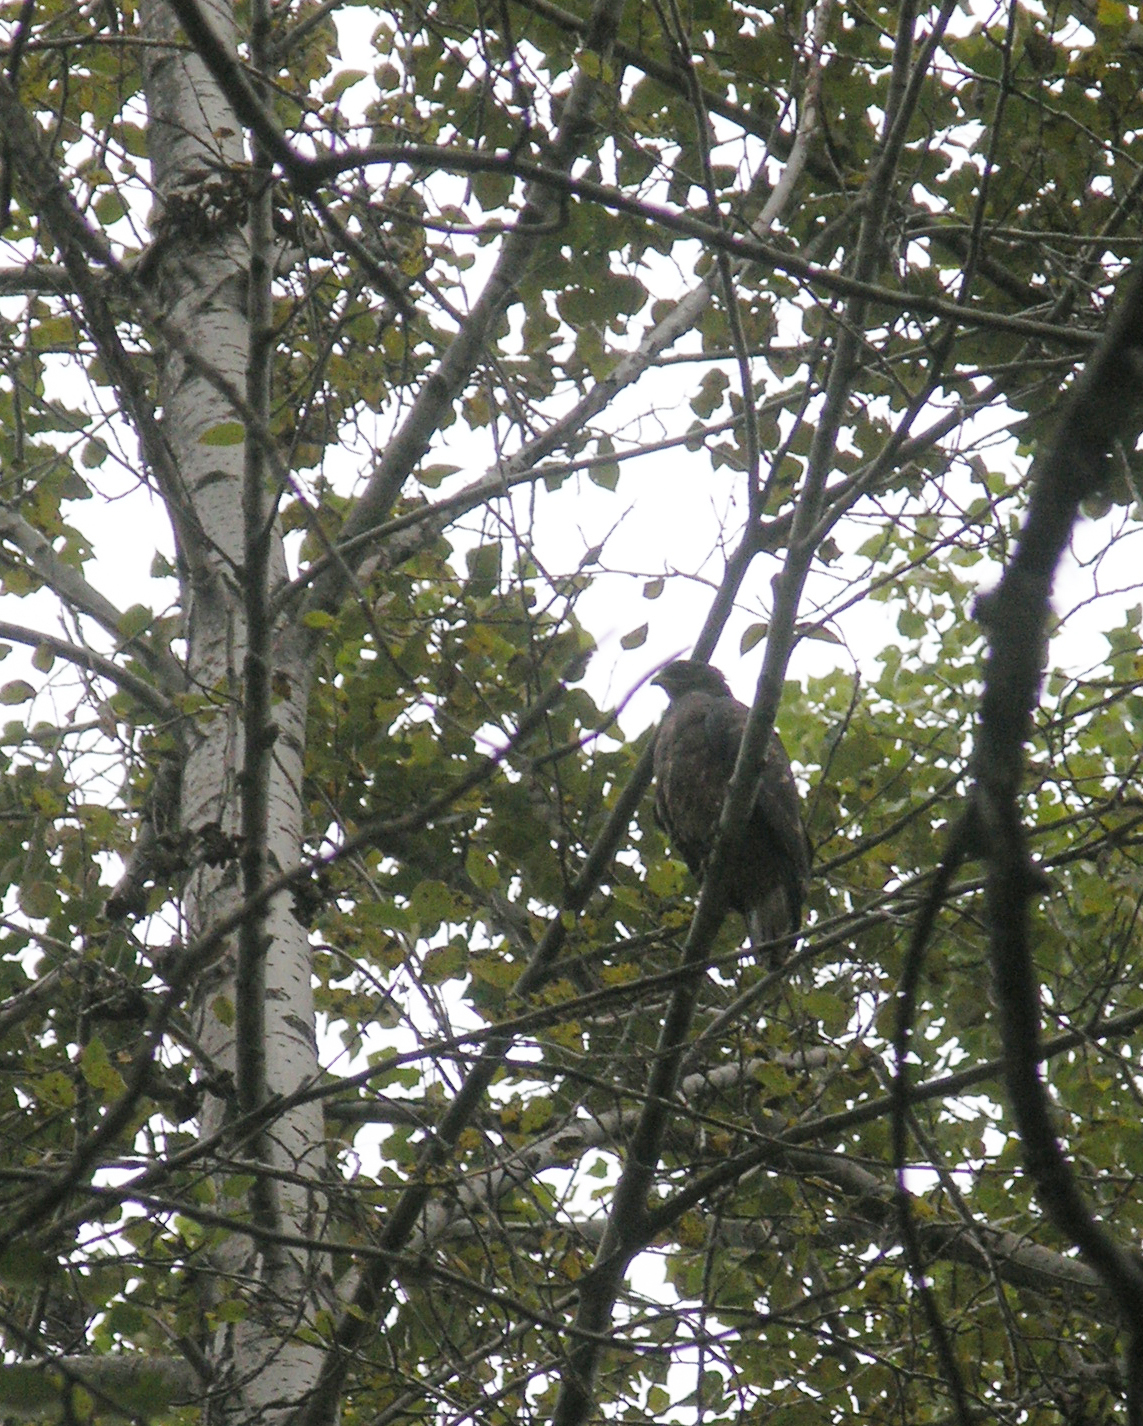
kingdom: Animalia
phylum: Chordata
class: Aves
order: Accipitriformes
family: Accipitridae
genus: Pernis
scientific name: Pernis apivorus
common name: European honey buzzard
